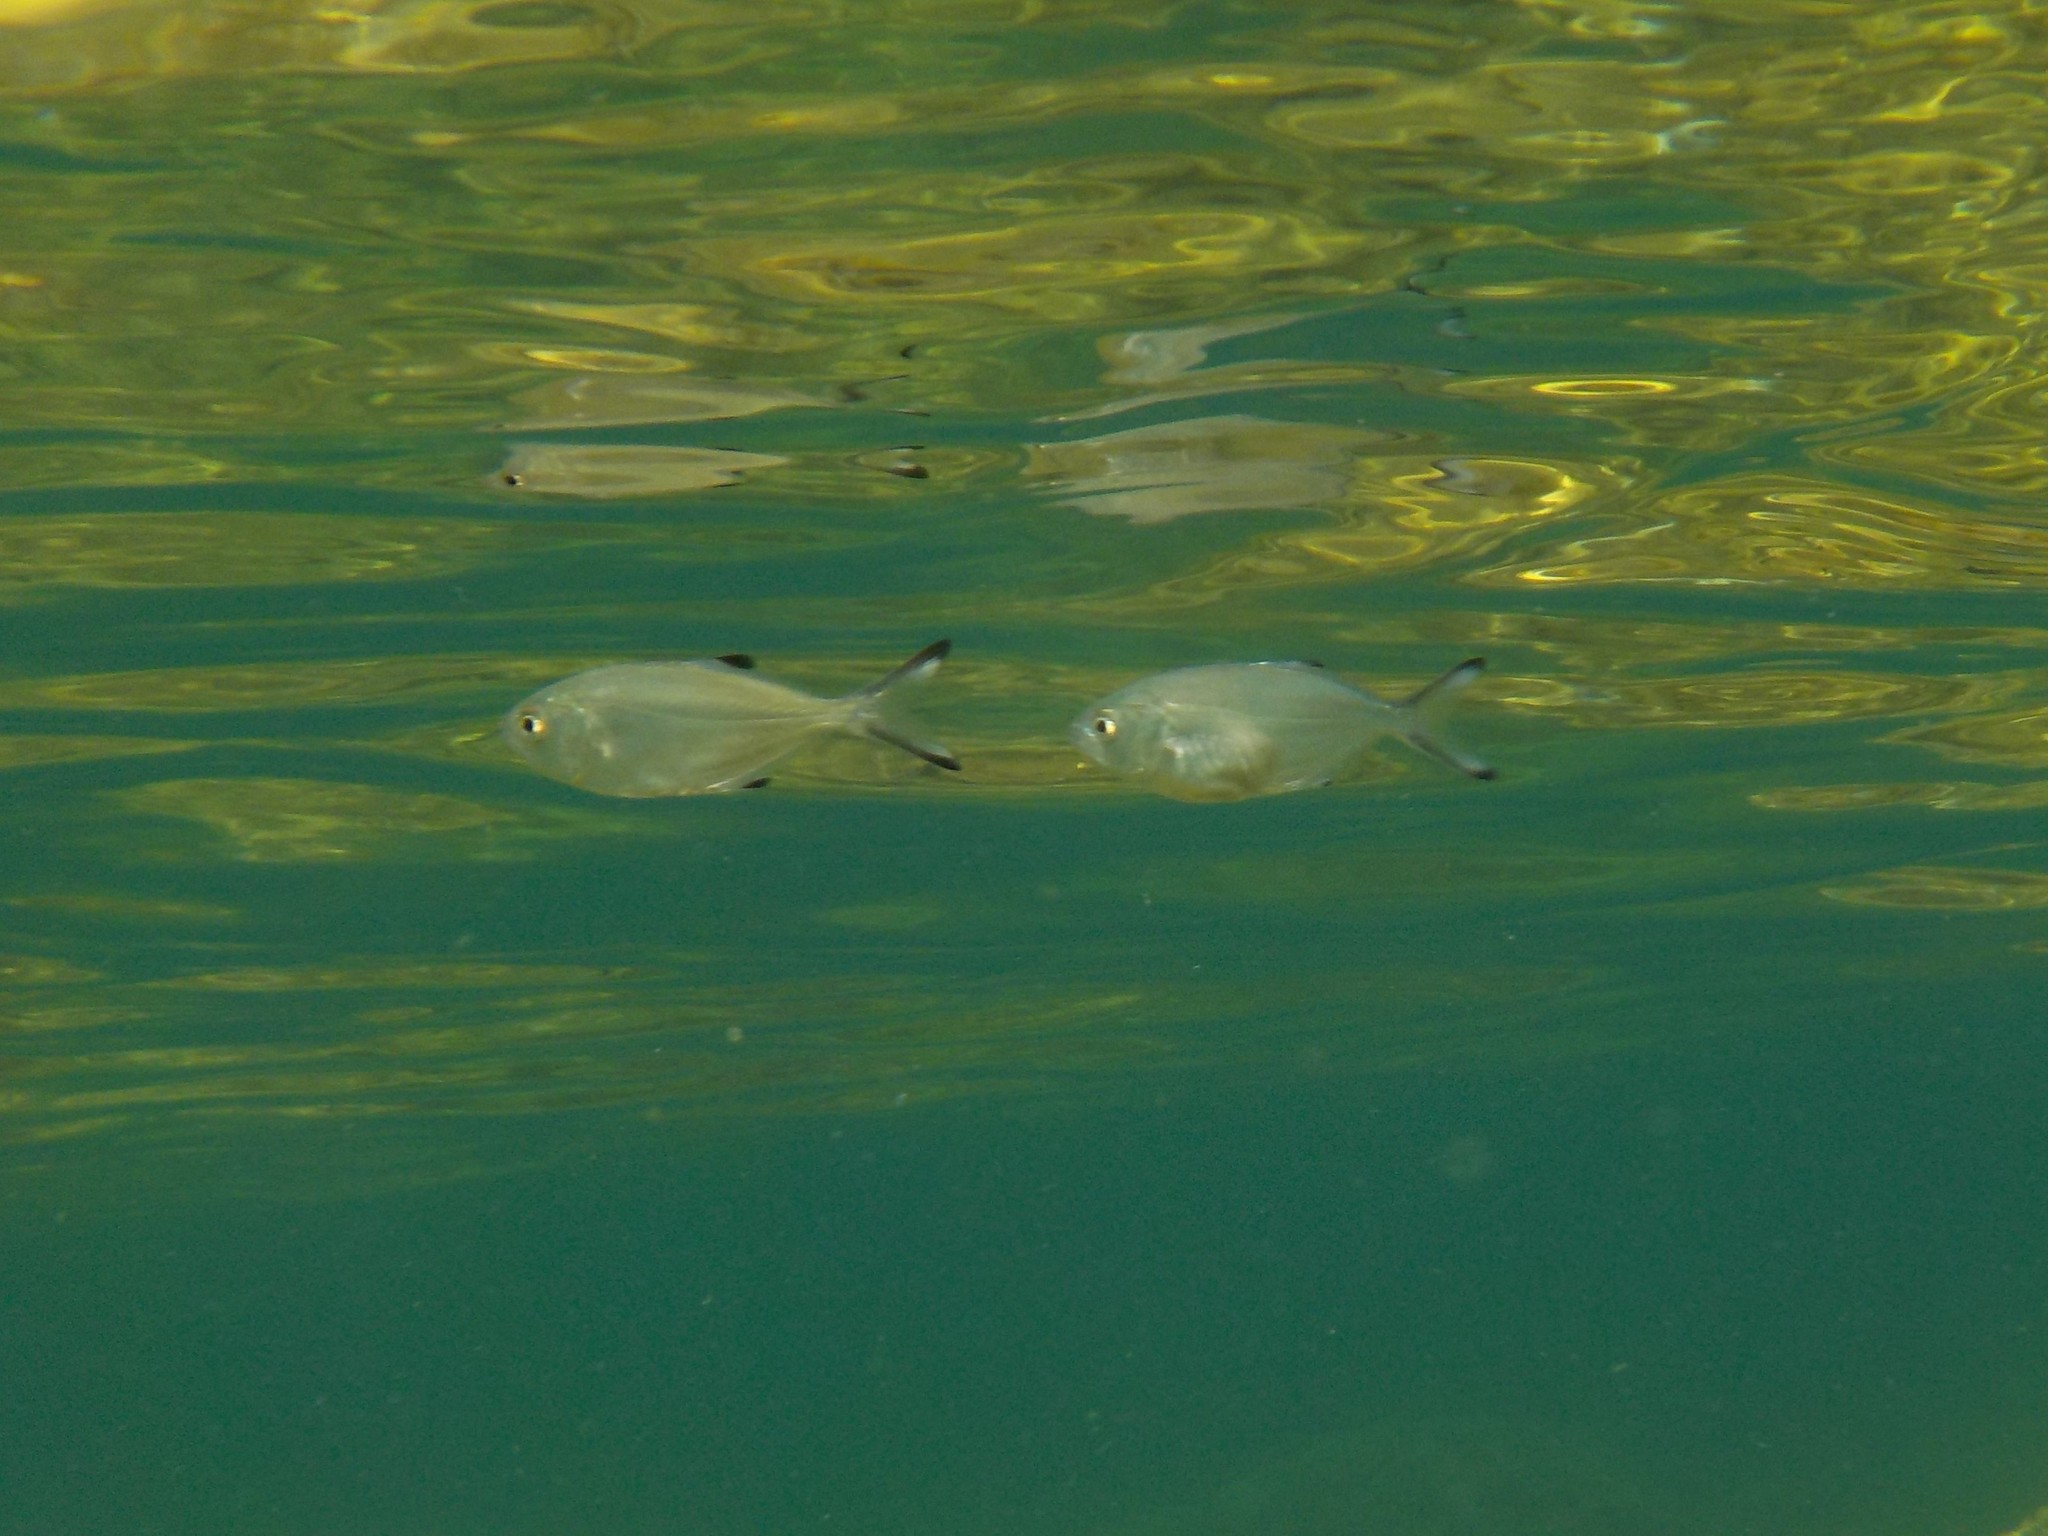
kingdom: Animalia
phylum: Chordata
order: Perciformes
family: Carangidae
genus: Trachinotus
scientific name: Trachinotus ovatus
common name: Pompano
